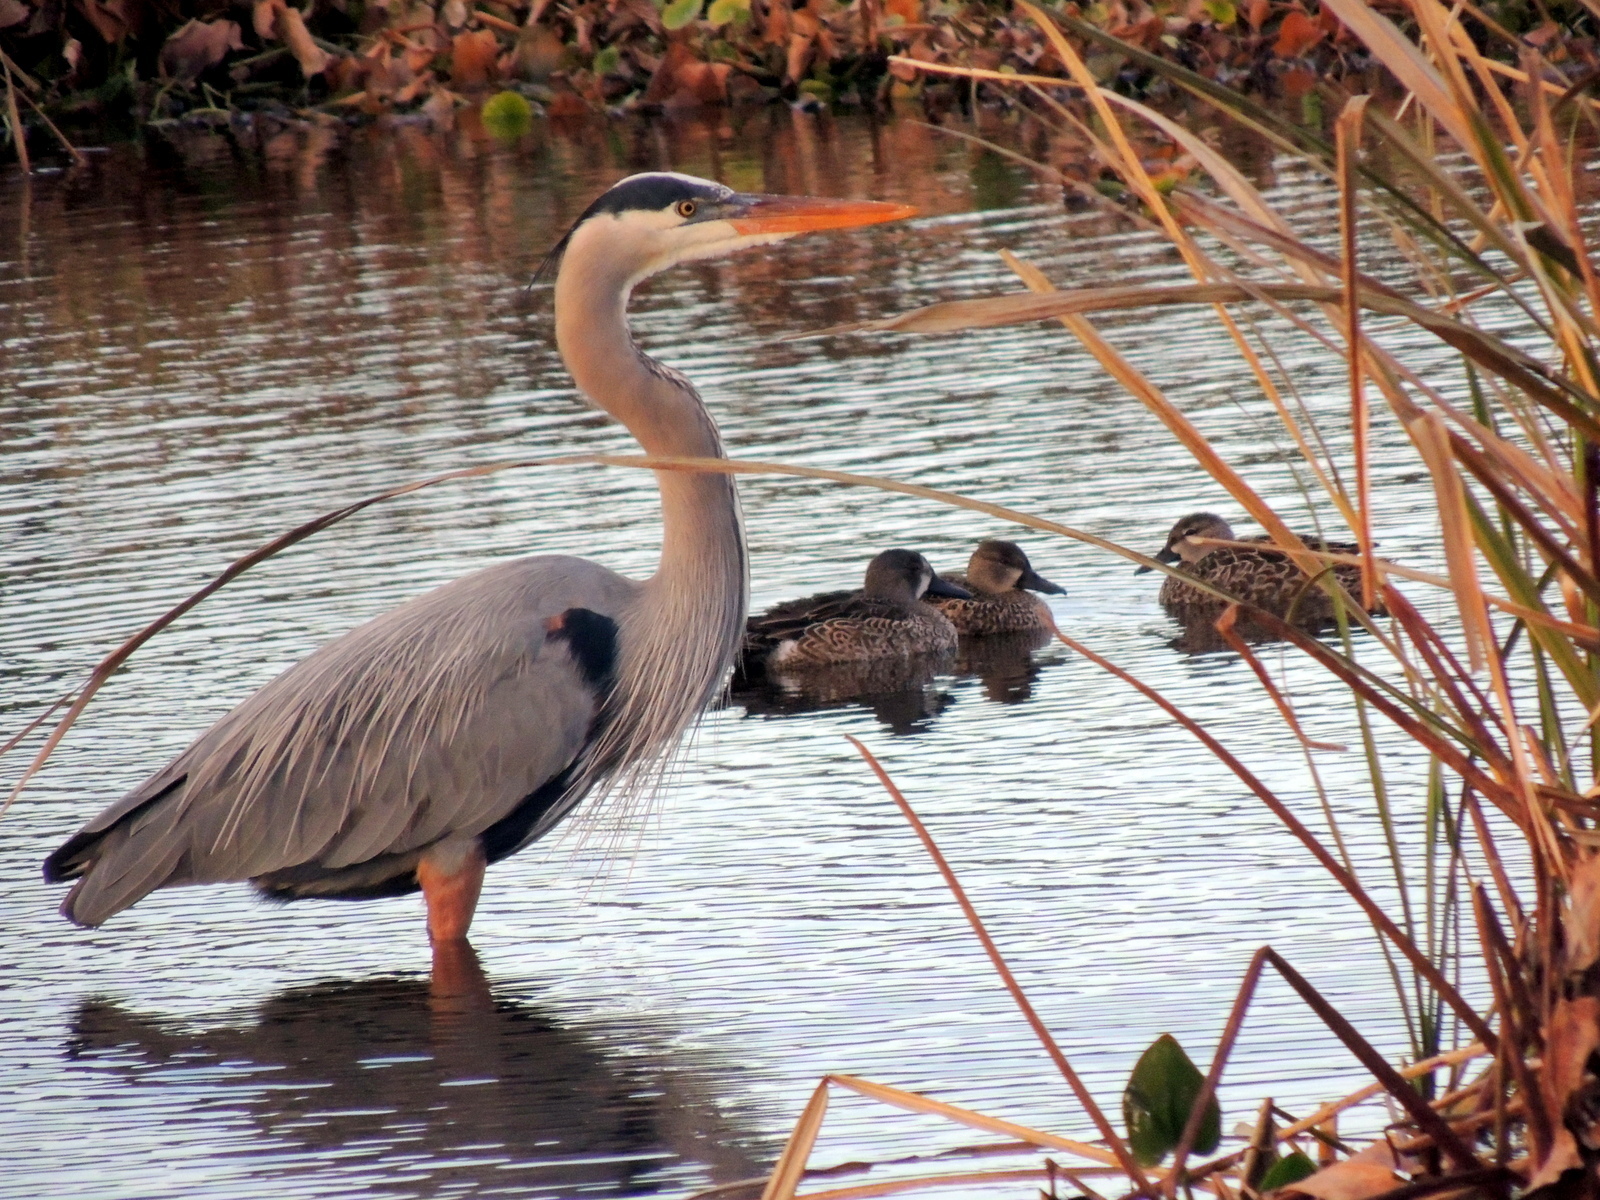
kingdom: Animalia
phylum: Chordata
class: Aves
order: Pelecaniformes
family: Ardeidae
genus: Ardea
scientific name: Ardea herodias
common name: Great blue heron
